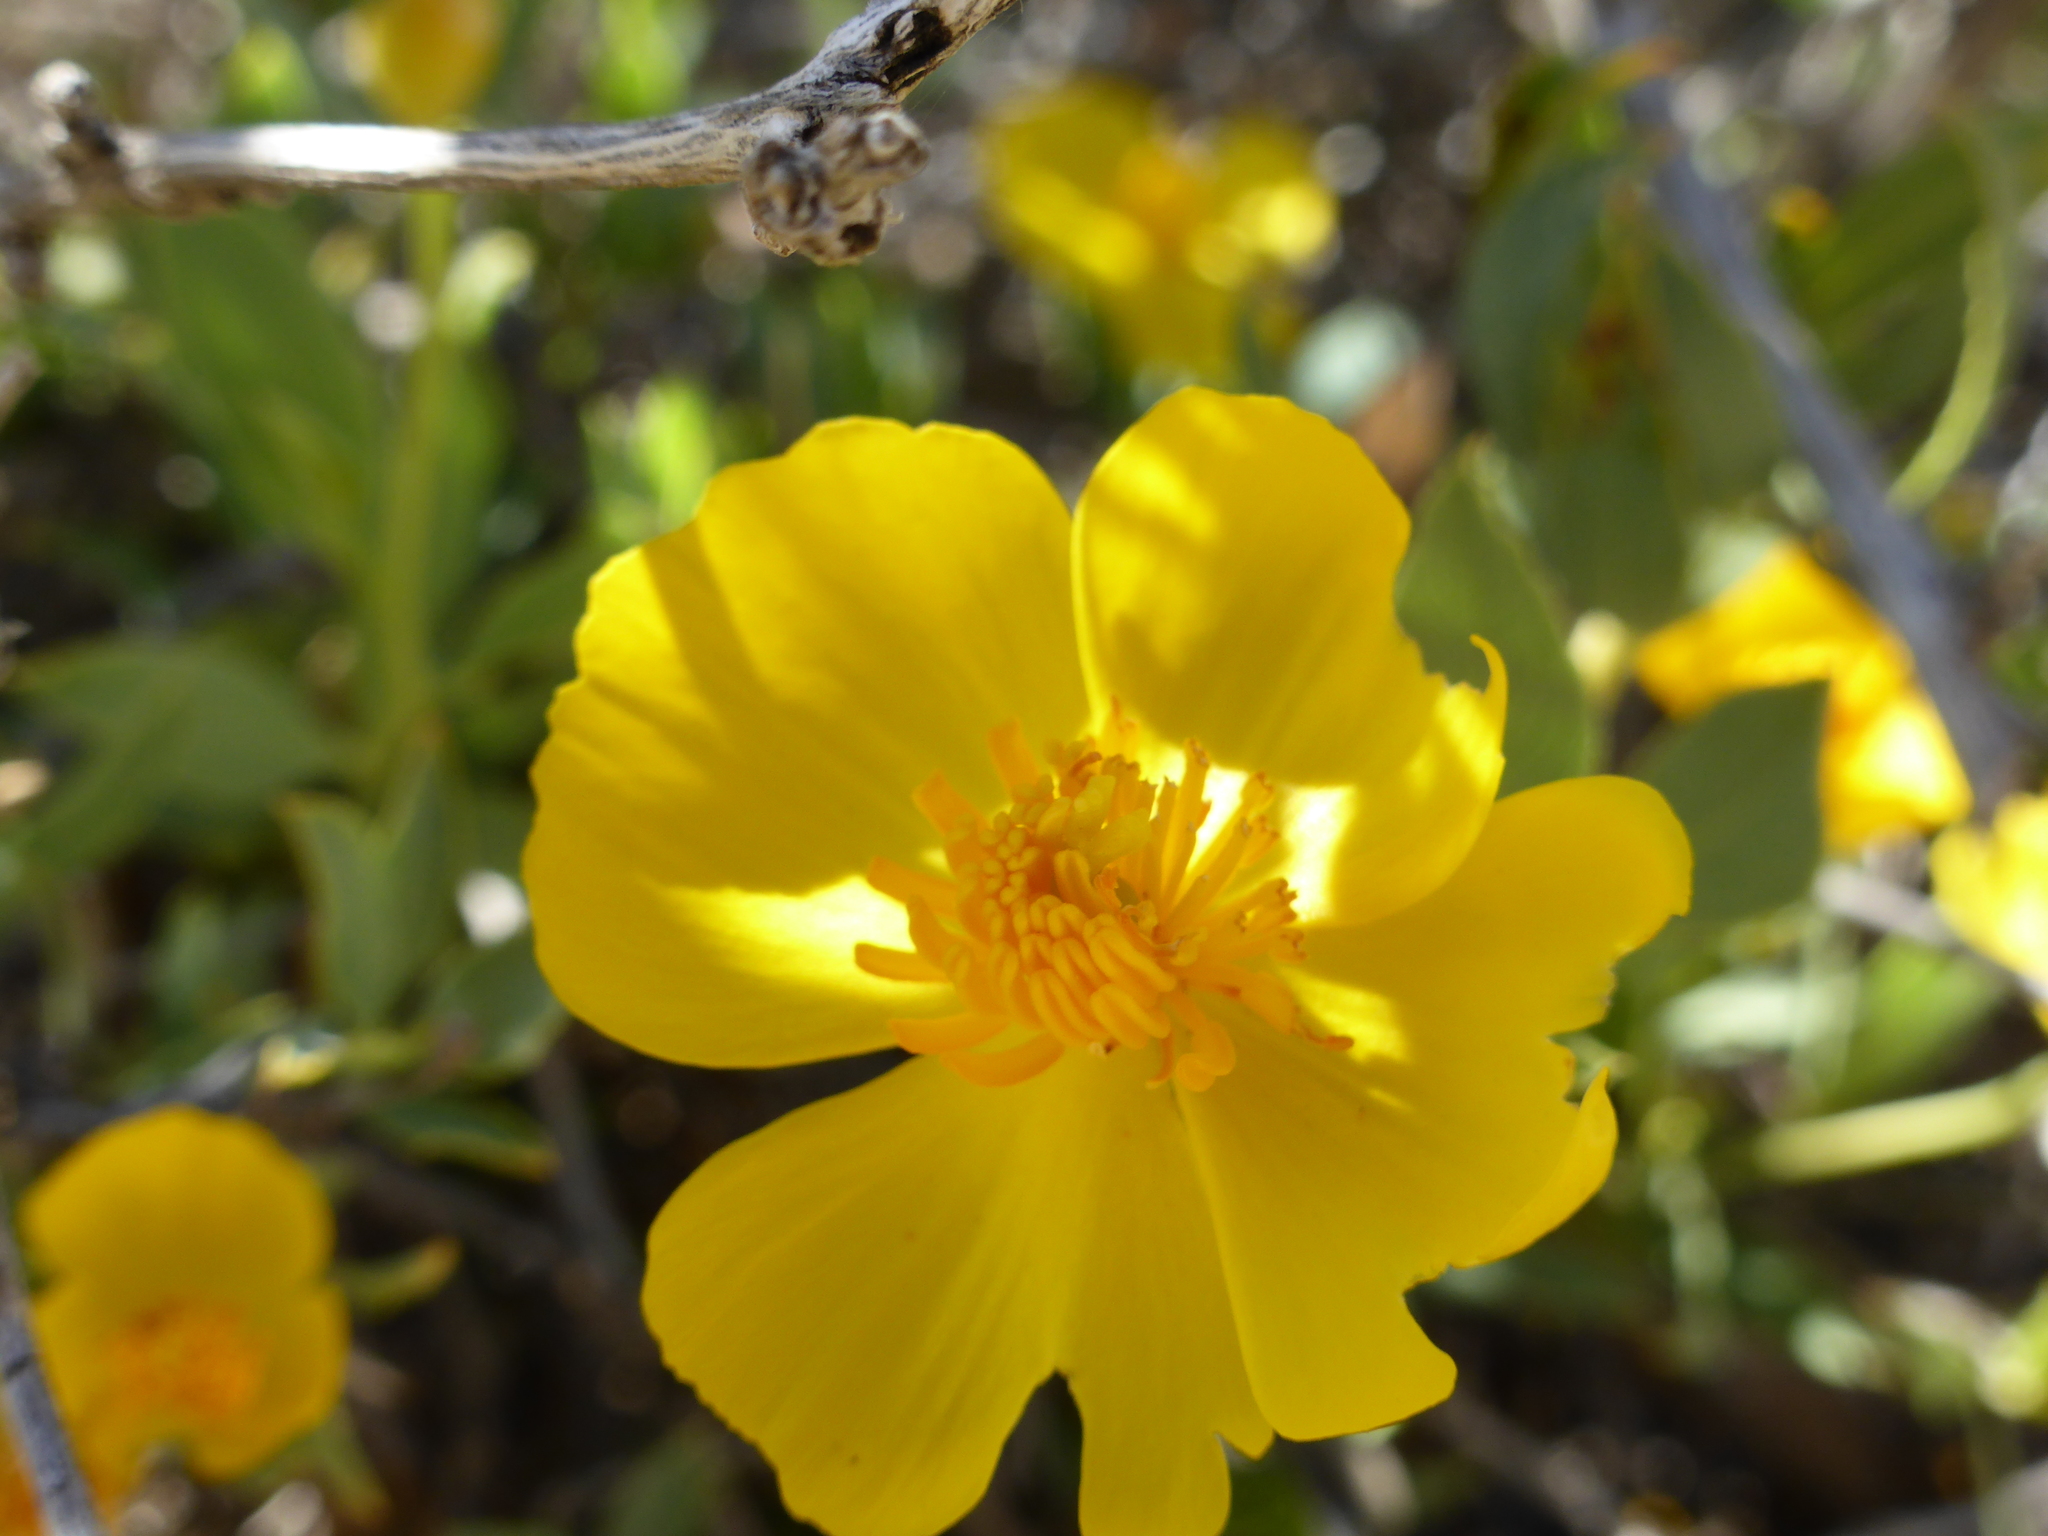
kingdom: Plantae
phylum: Tracheophyta
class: Magnoliopsida
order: Ranunculales
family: Papaveraceae
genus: Dendromecon
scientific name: Dendromecon rigida
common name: Tree poppy
